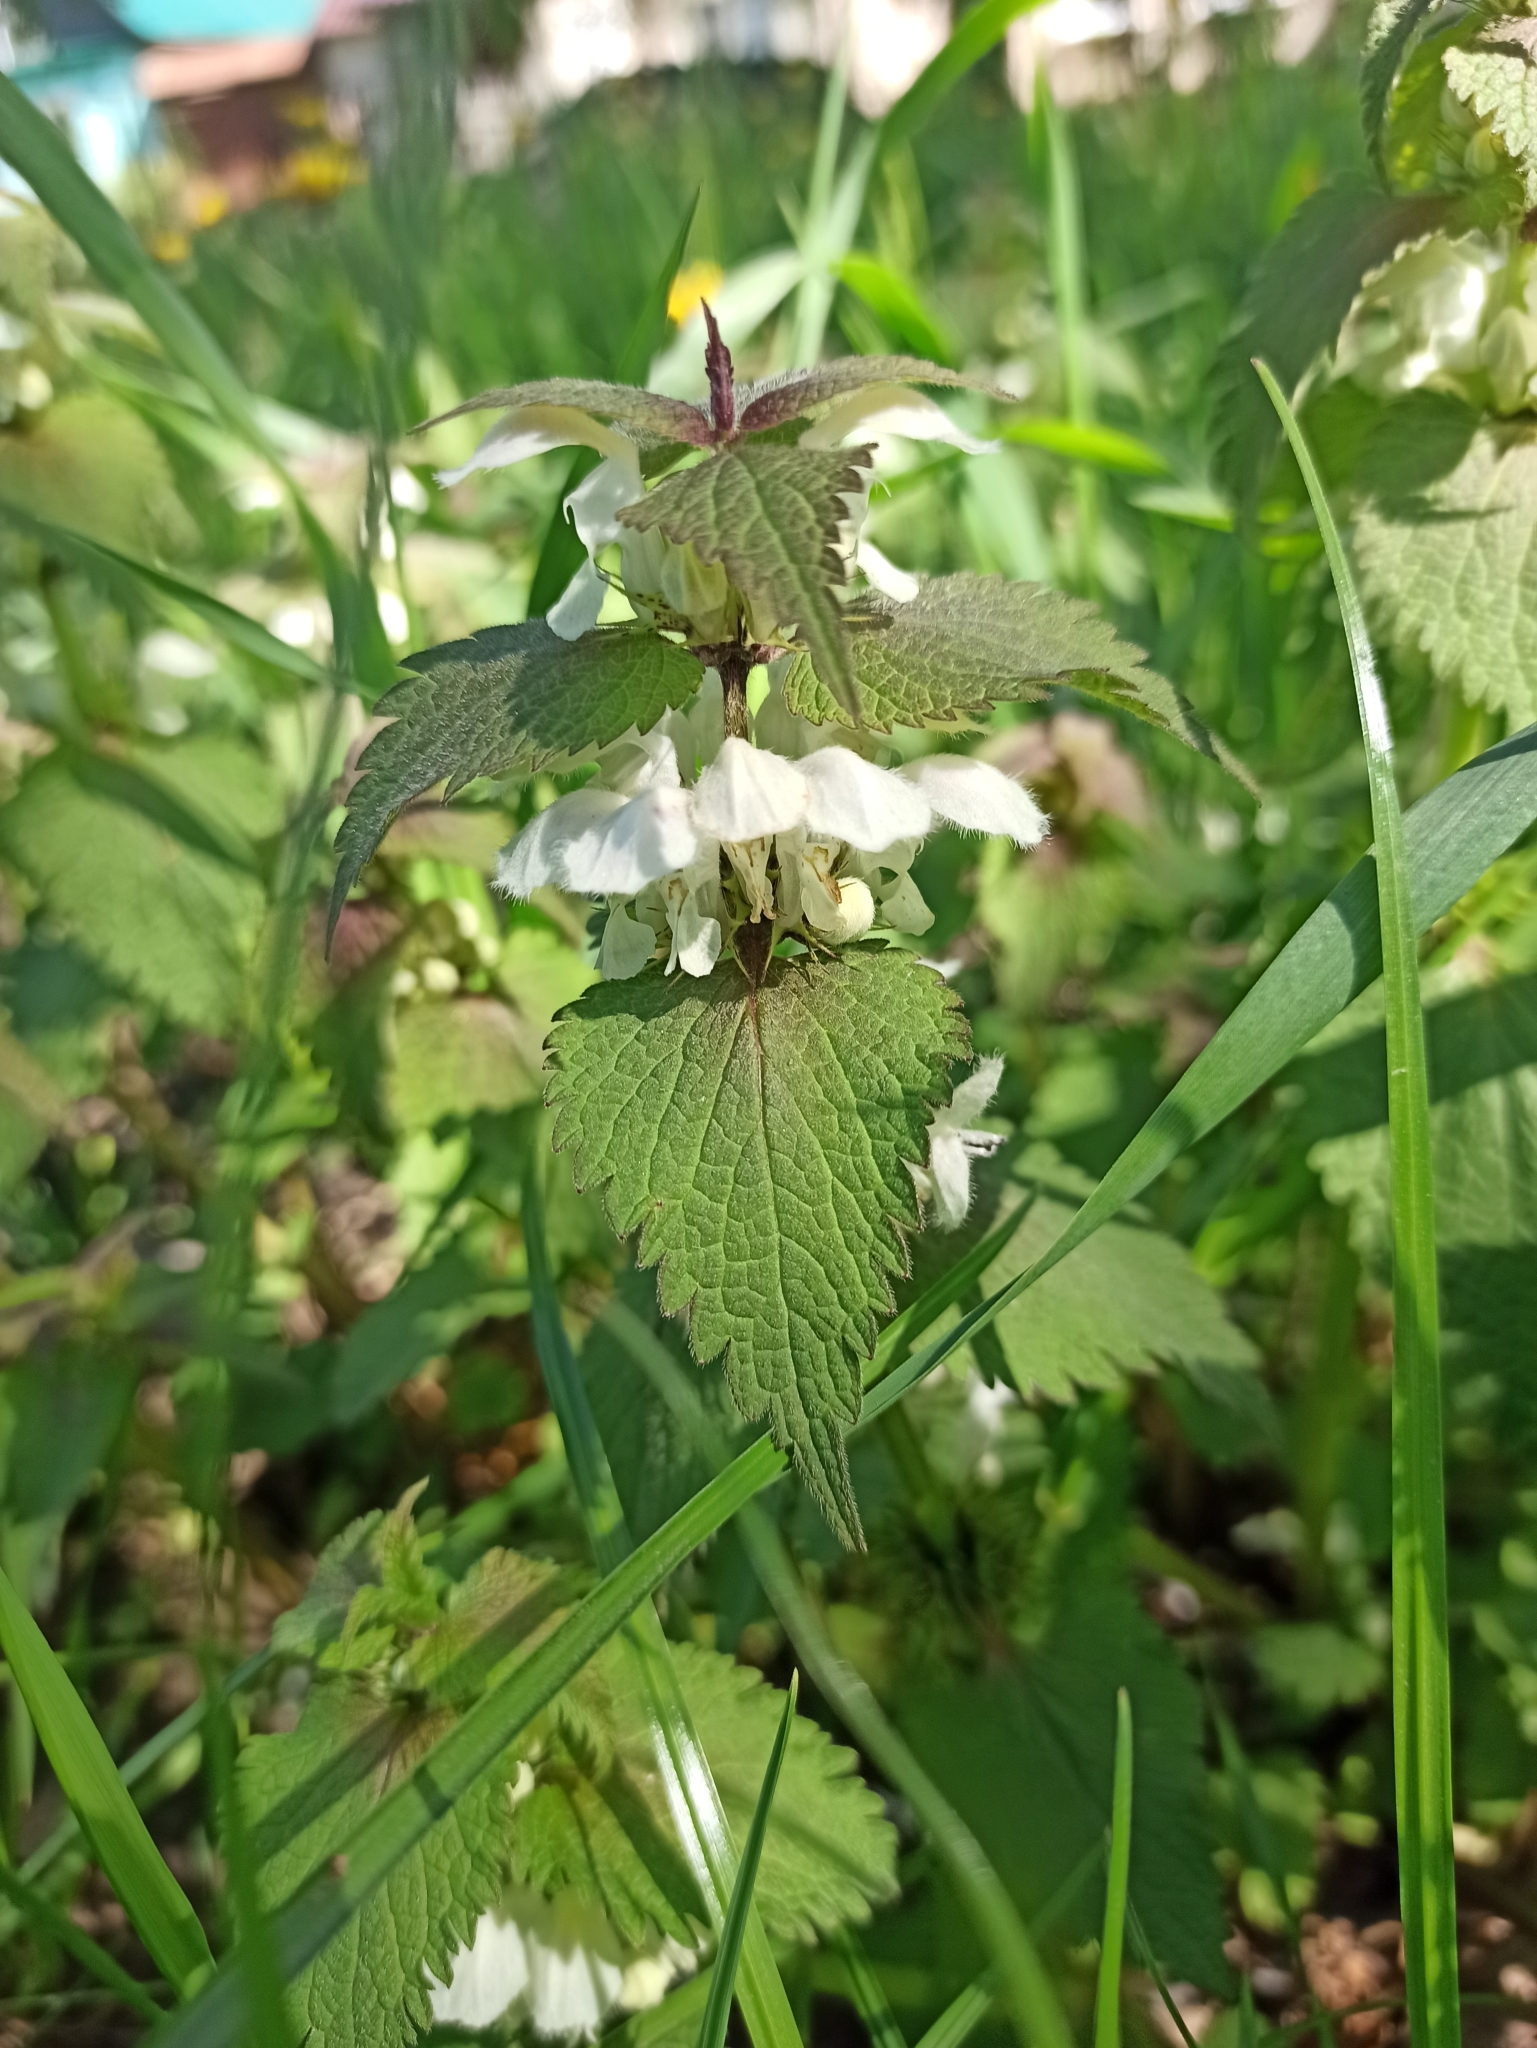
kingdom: Plantae
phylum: Tracheophyta
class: Magnoliopsida
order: Lamiales
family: Lamiaceae
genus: Lamium
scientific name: Lamium album
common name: White dead-nettle
